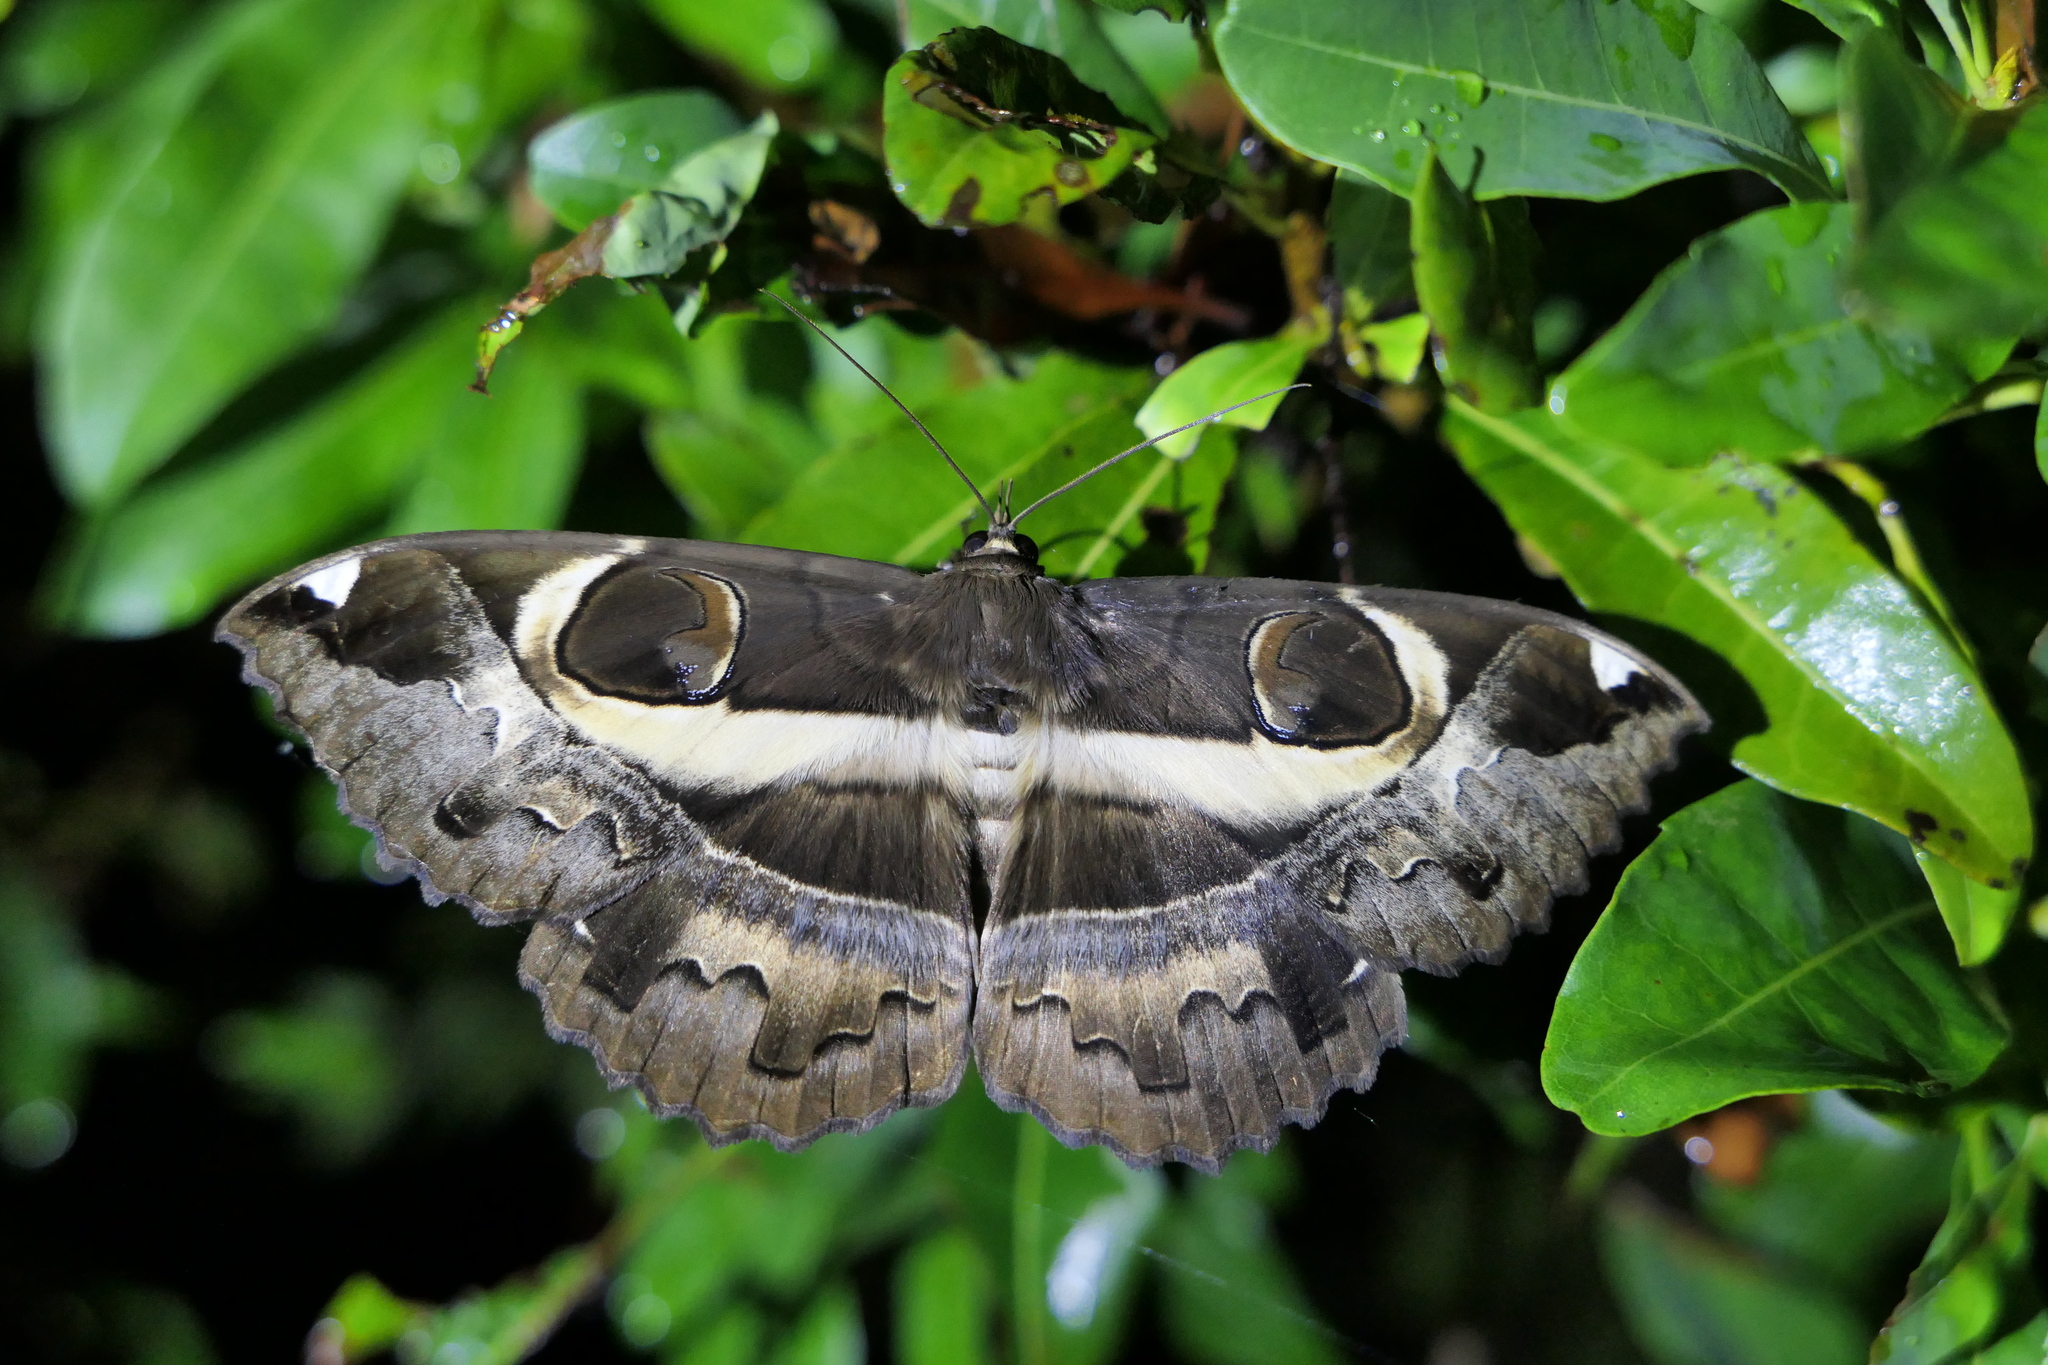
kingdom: Animalia
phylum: Arthropoda
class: Insecta
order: Lepidoptera
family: Erebidae
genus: Erebus
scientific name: Erebus ephesperis
